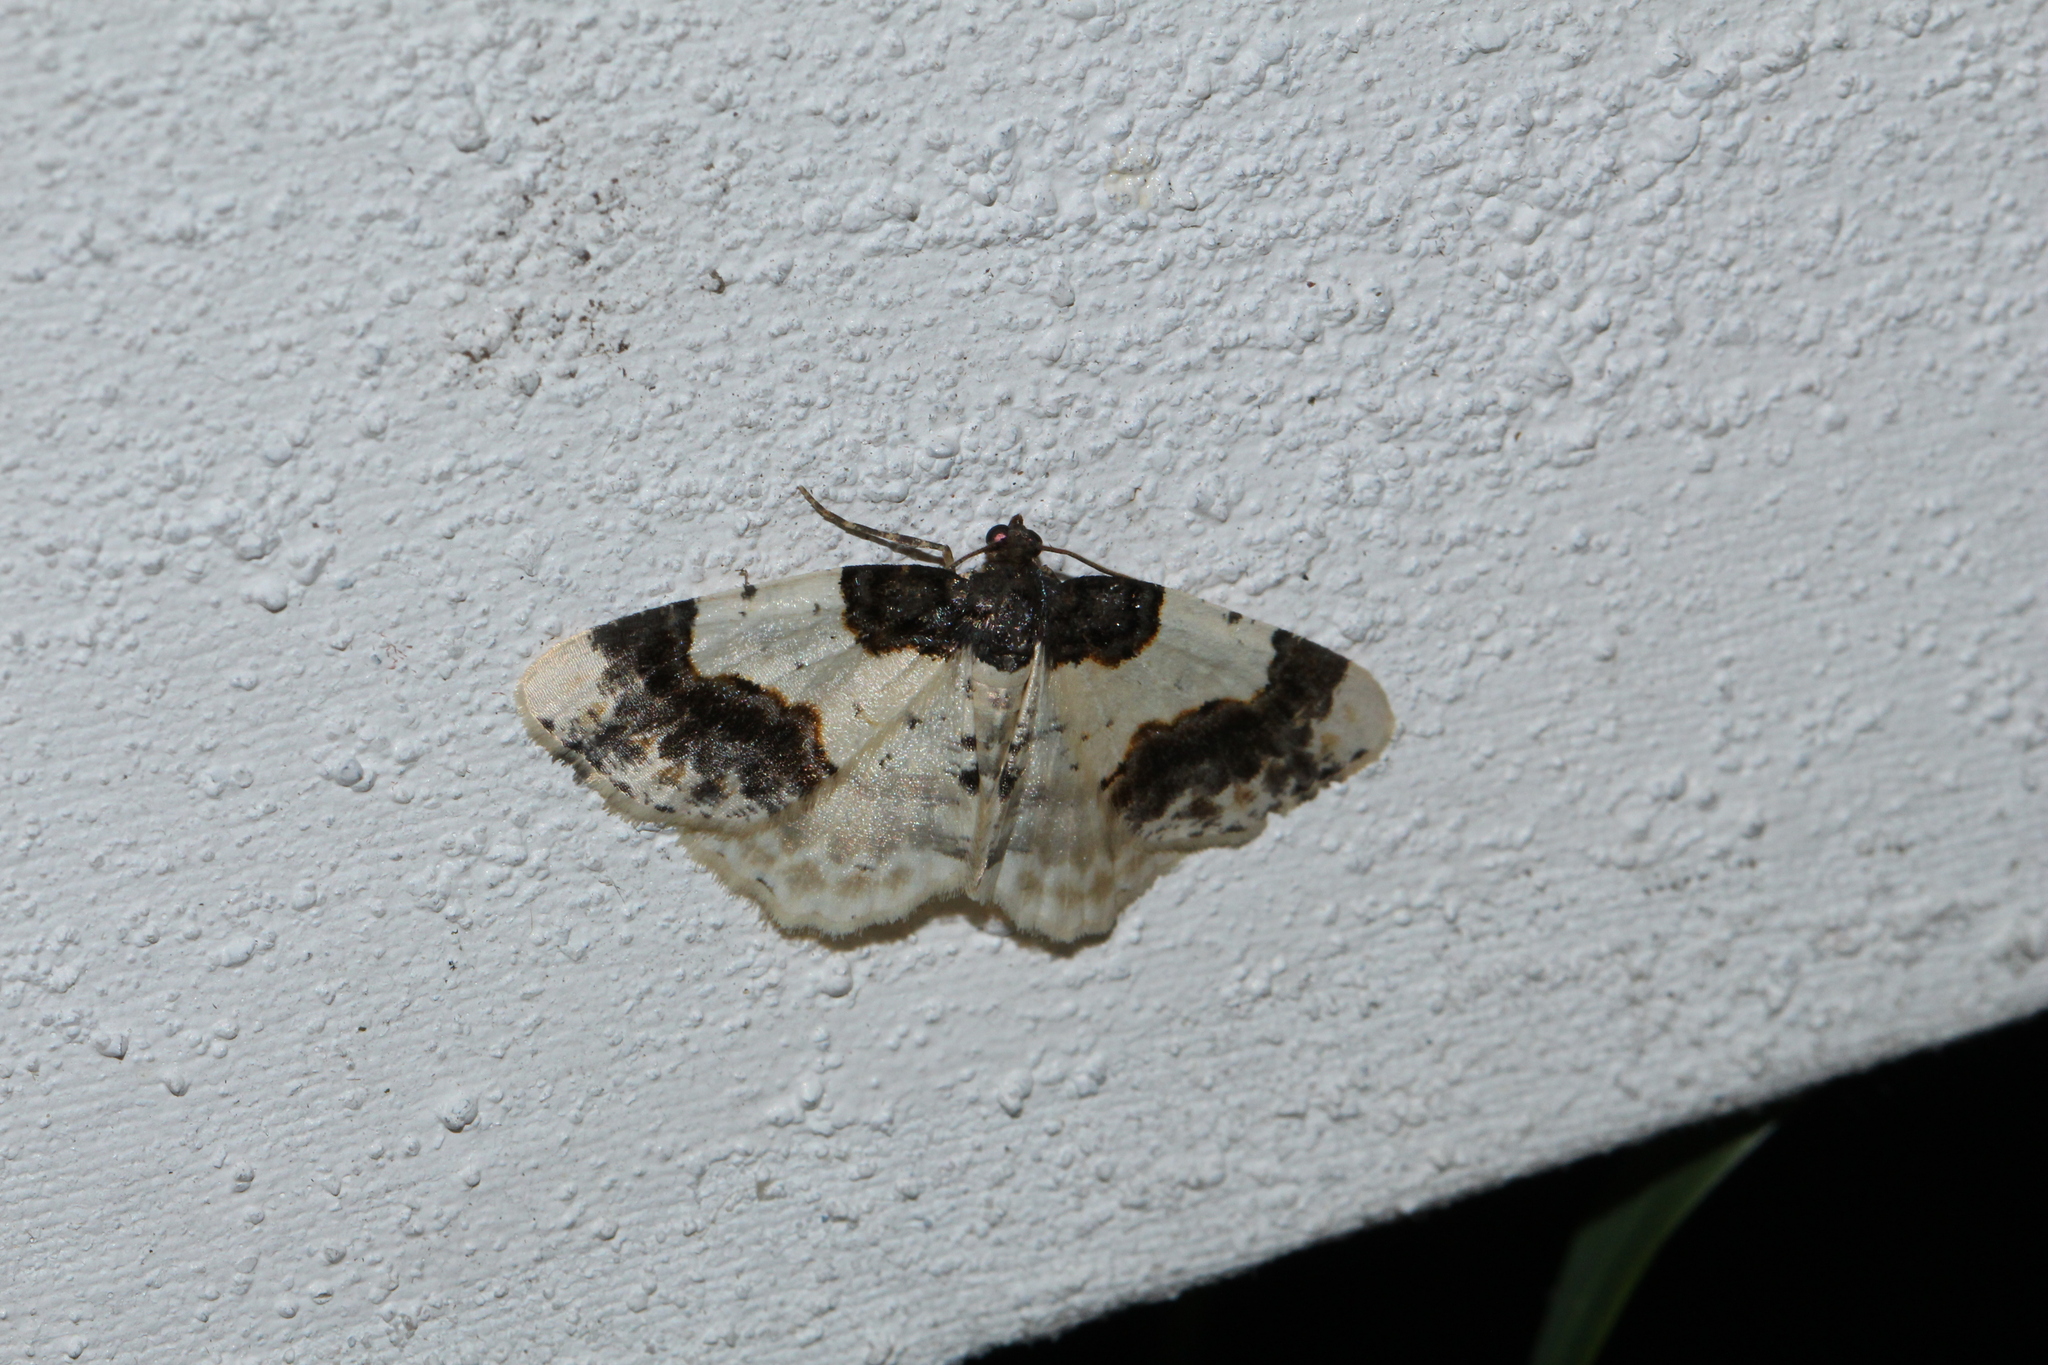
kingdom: Animalia
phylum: Arthropoda
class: Insecta
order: Lepidoptera
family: Geometridae
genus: Ligdia
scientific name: Ligdia adustata
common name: Scorched carpet
